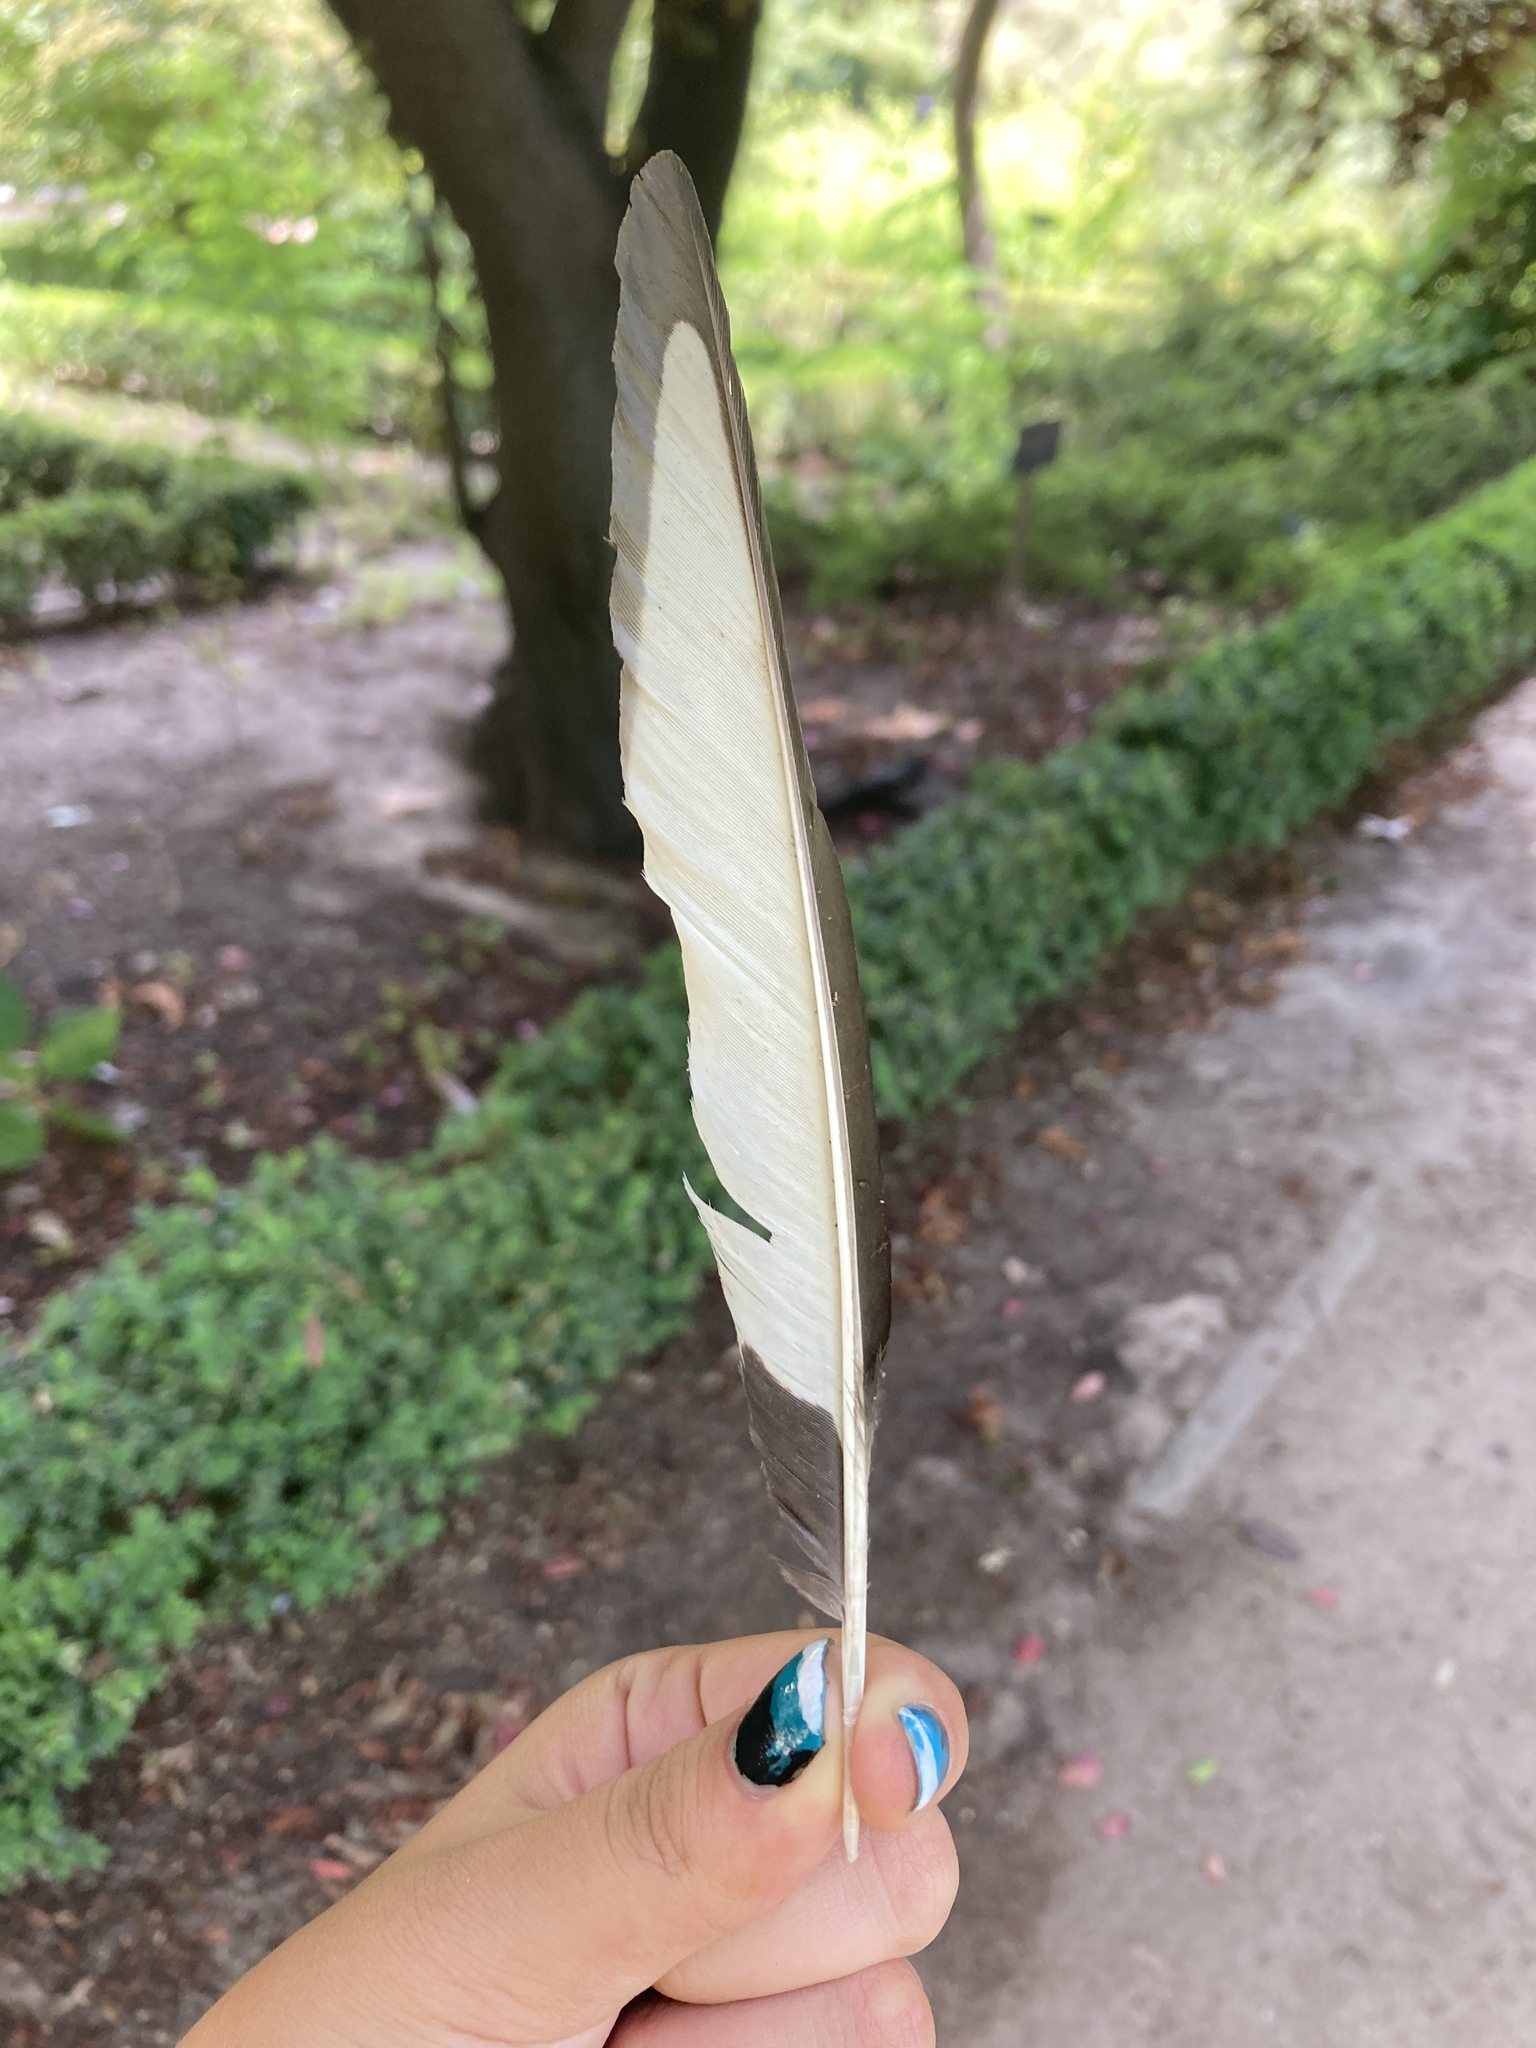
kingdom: Animalia
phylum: Chordata
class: Aves
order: Passeriformes
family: Corvidae
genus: Pica
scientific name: Pica pica
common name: Eurasian magpie
